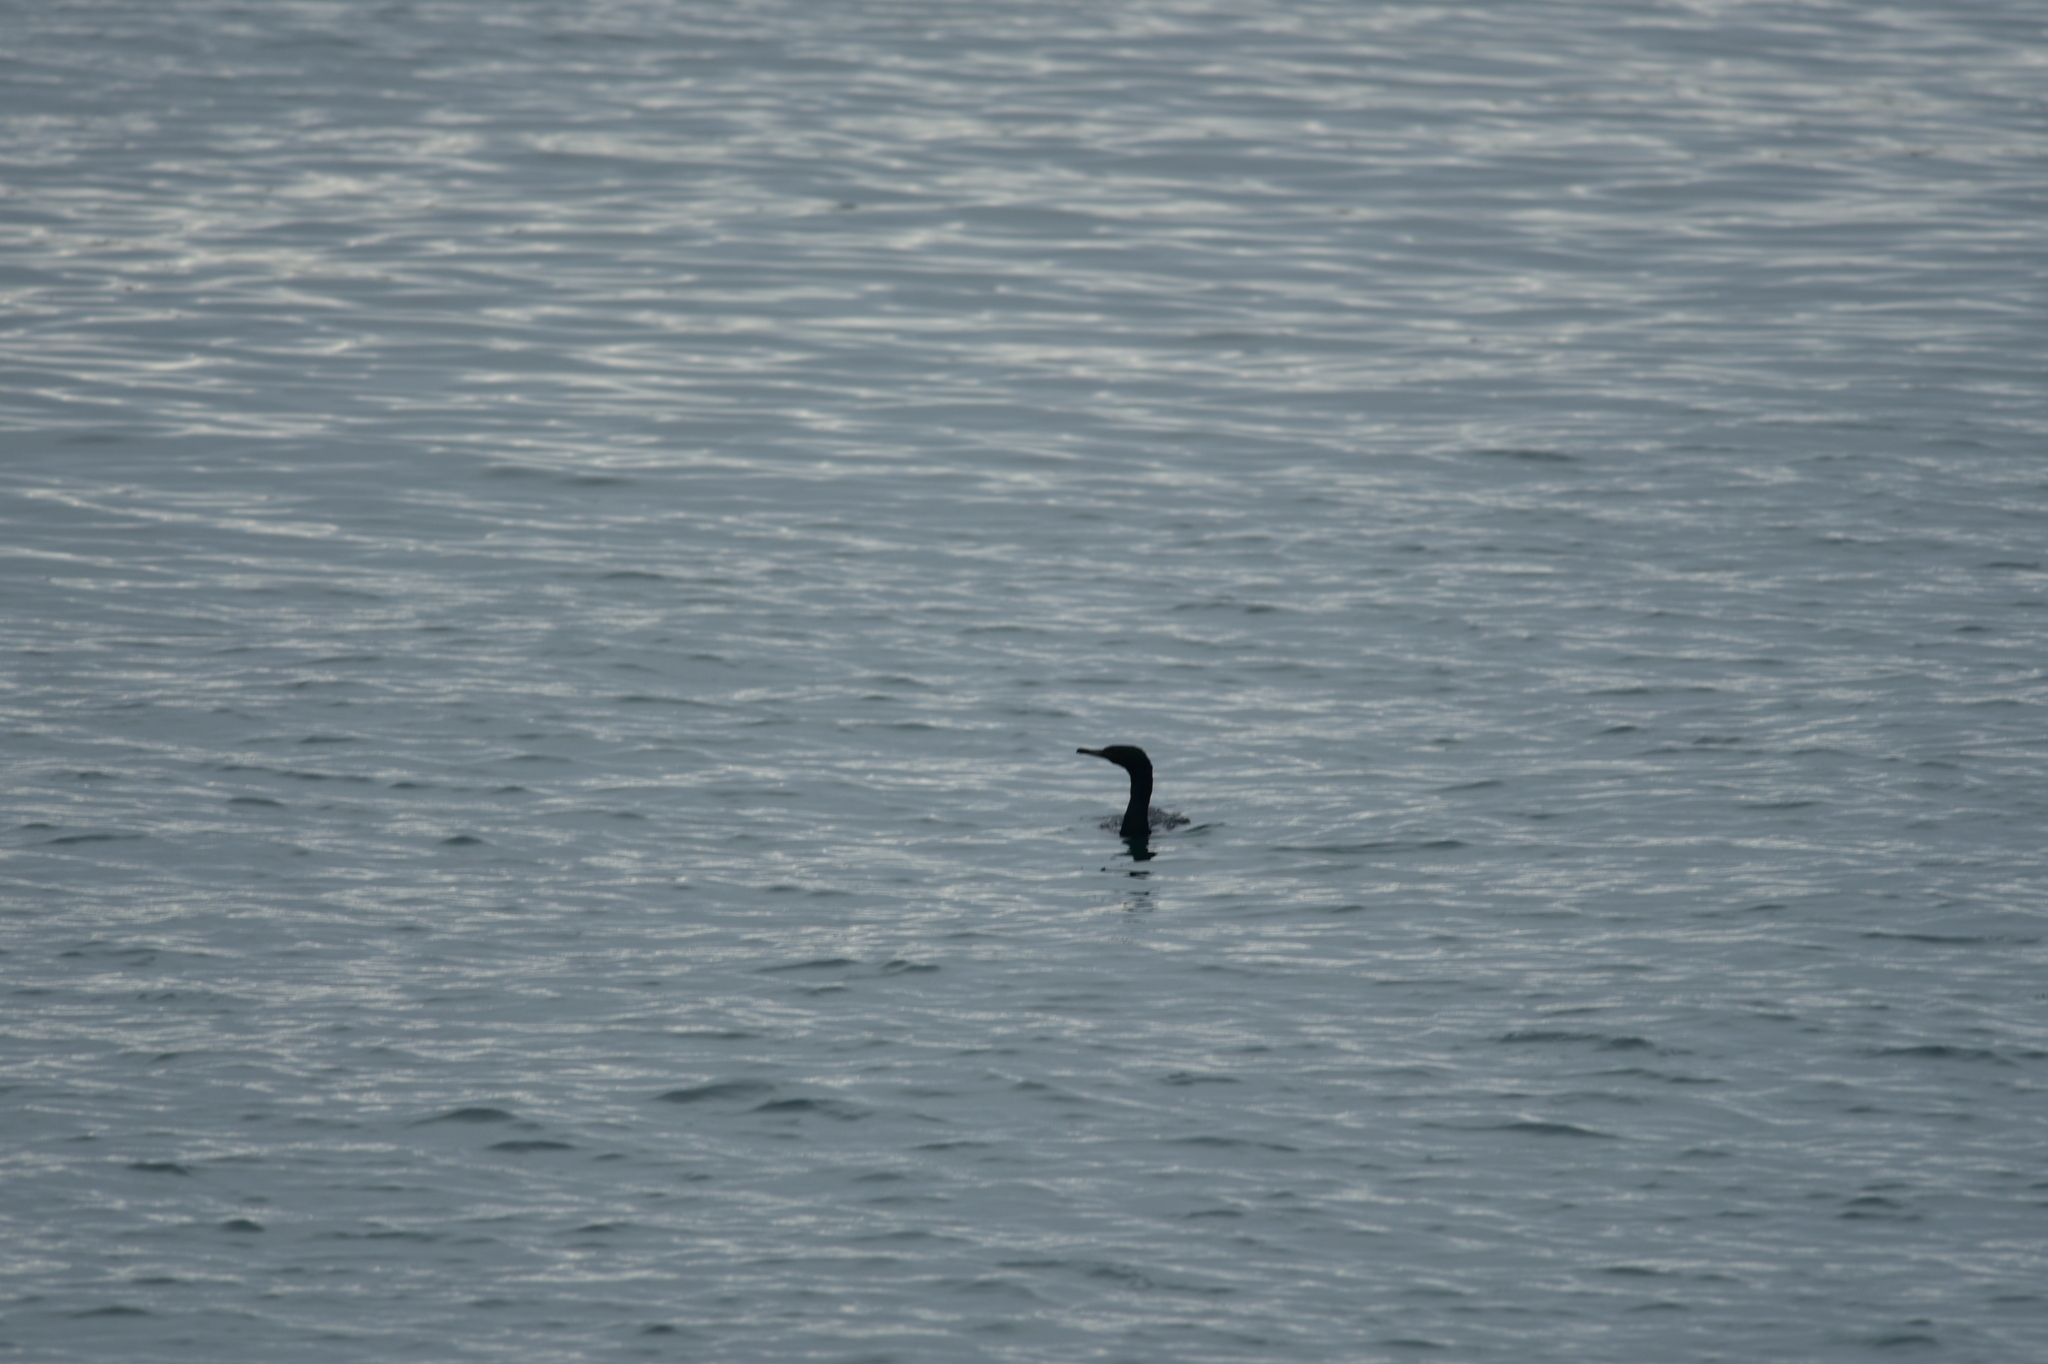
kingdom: Animalia
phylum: Chordata
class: Aves
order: Suliformes
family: Phalacrocoracidae
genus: Phalacrocorax
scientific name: Phalacrocorax pelagicus
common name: Pelagic cormorant
